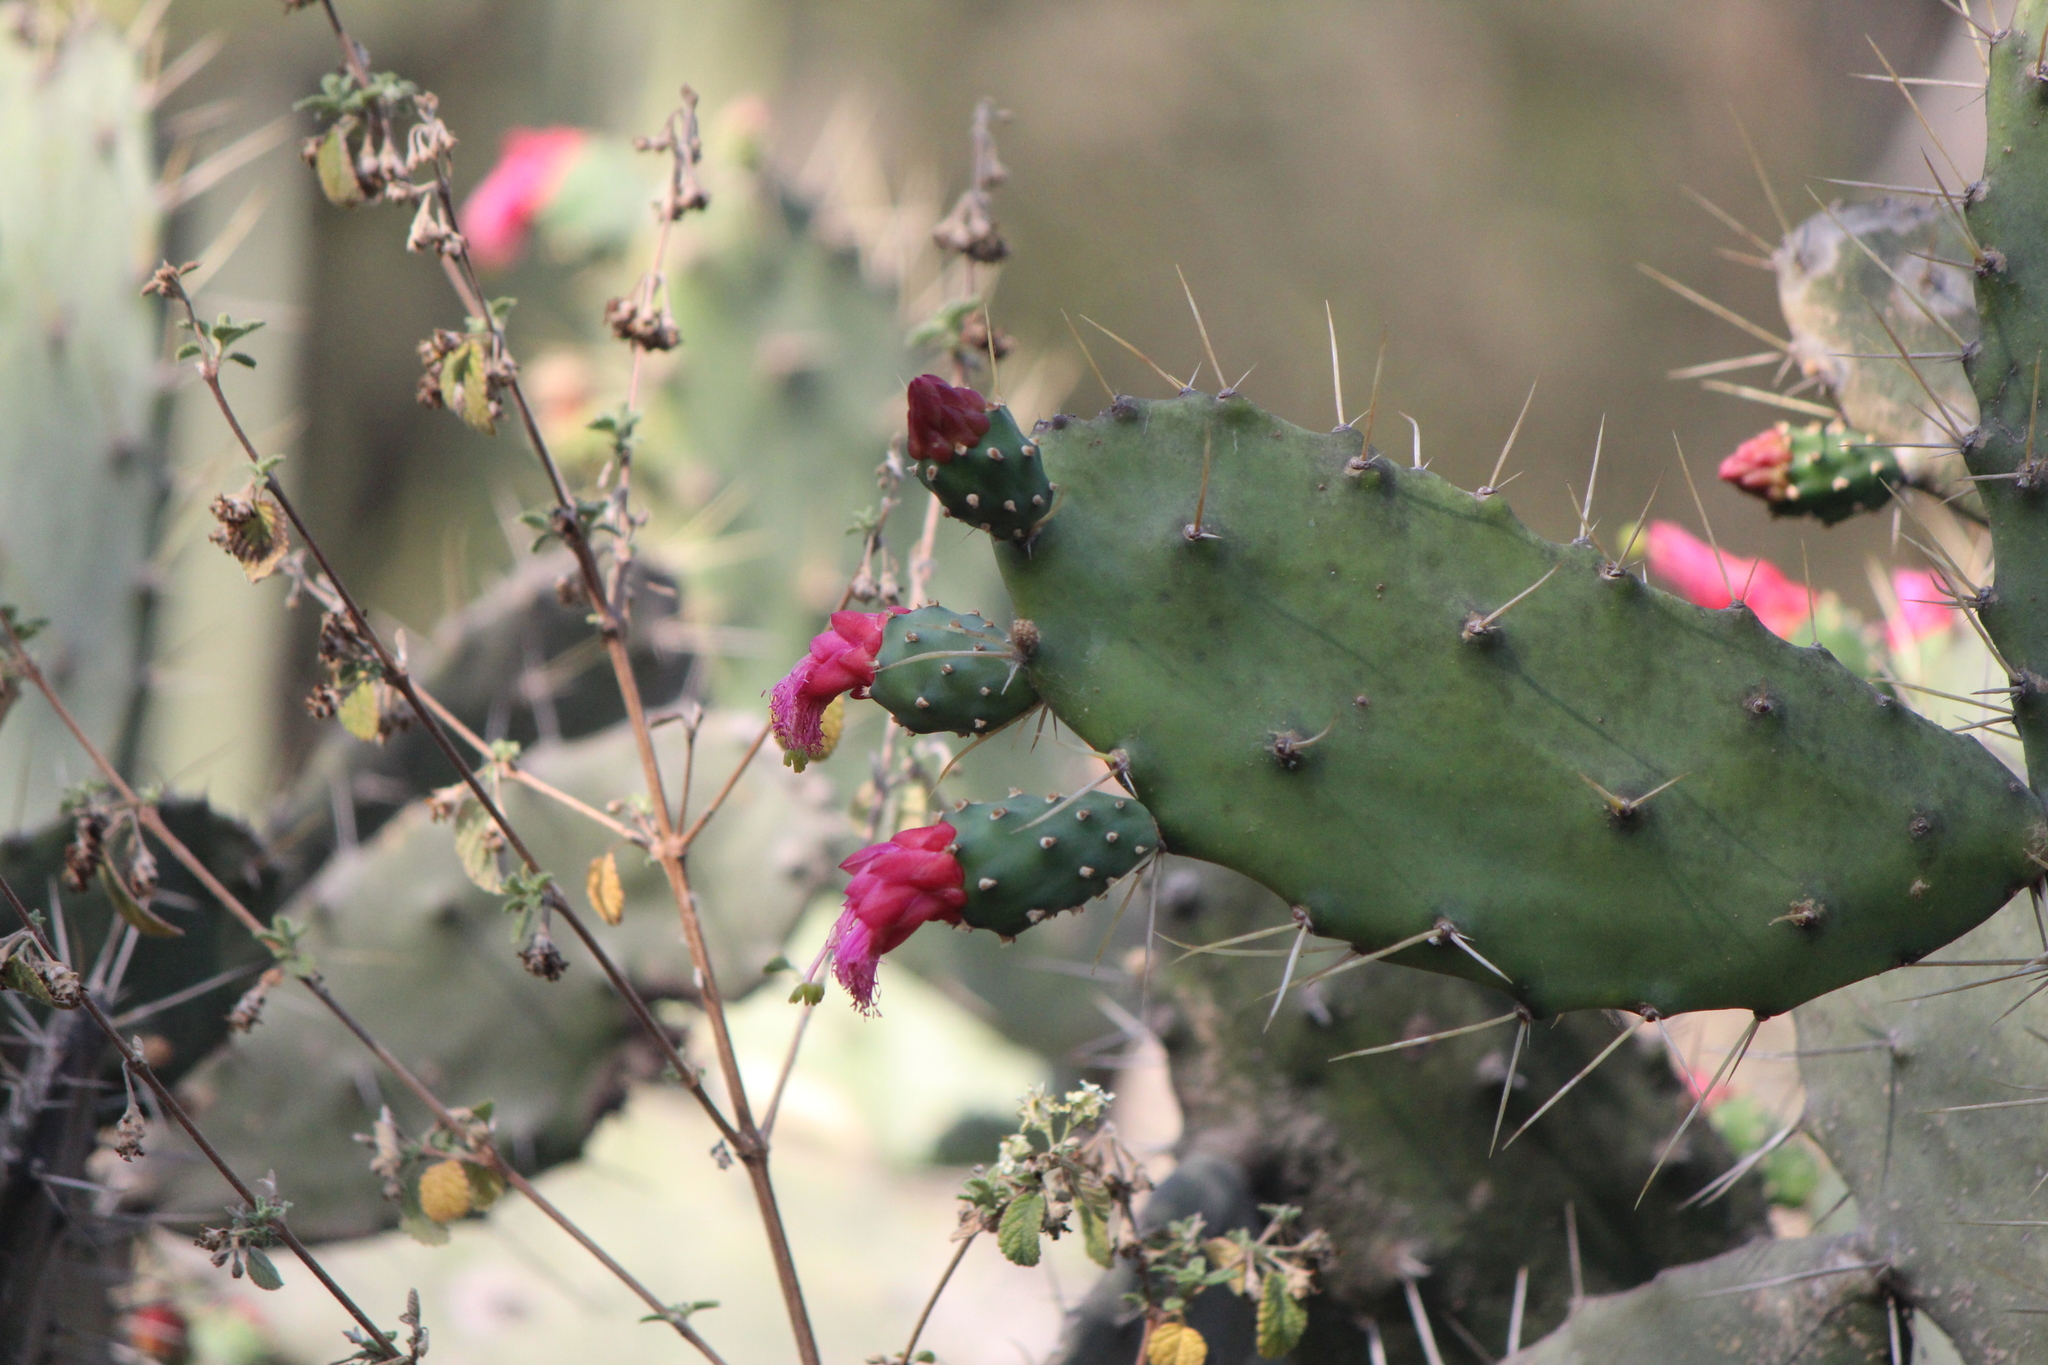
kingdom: Plantae
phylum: Tracheophyta
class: Magnoliopsida
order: Caryophyllales
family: Cactaceae
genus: Opuntia
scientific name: Opuntia dejecta
